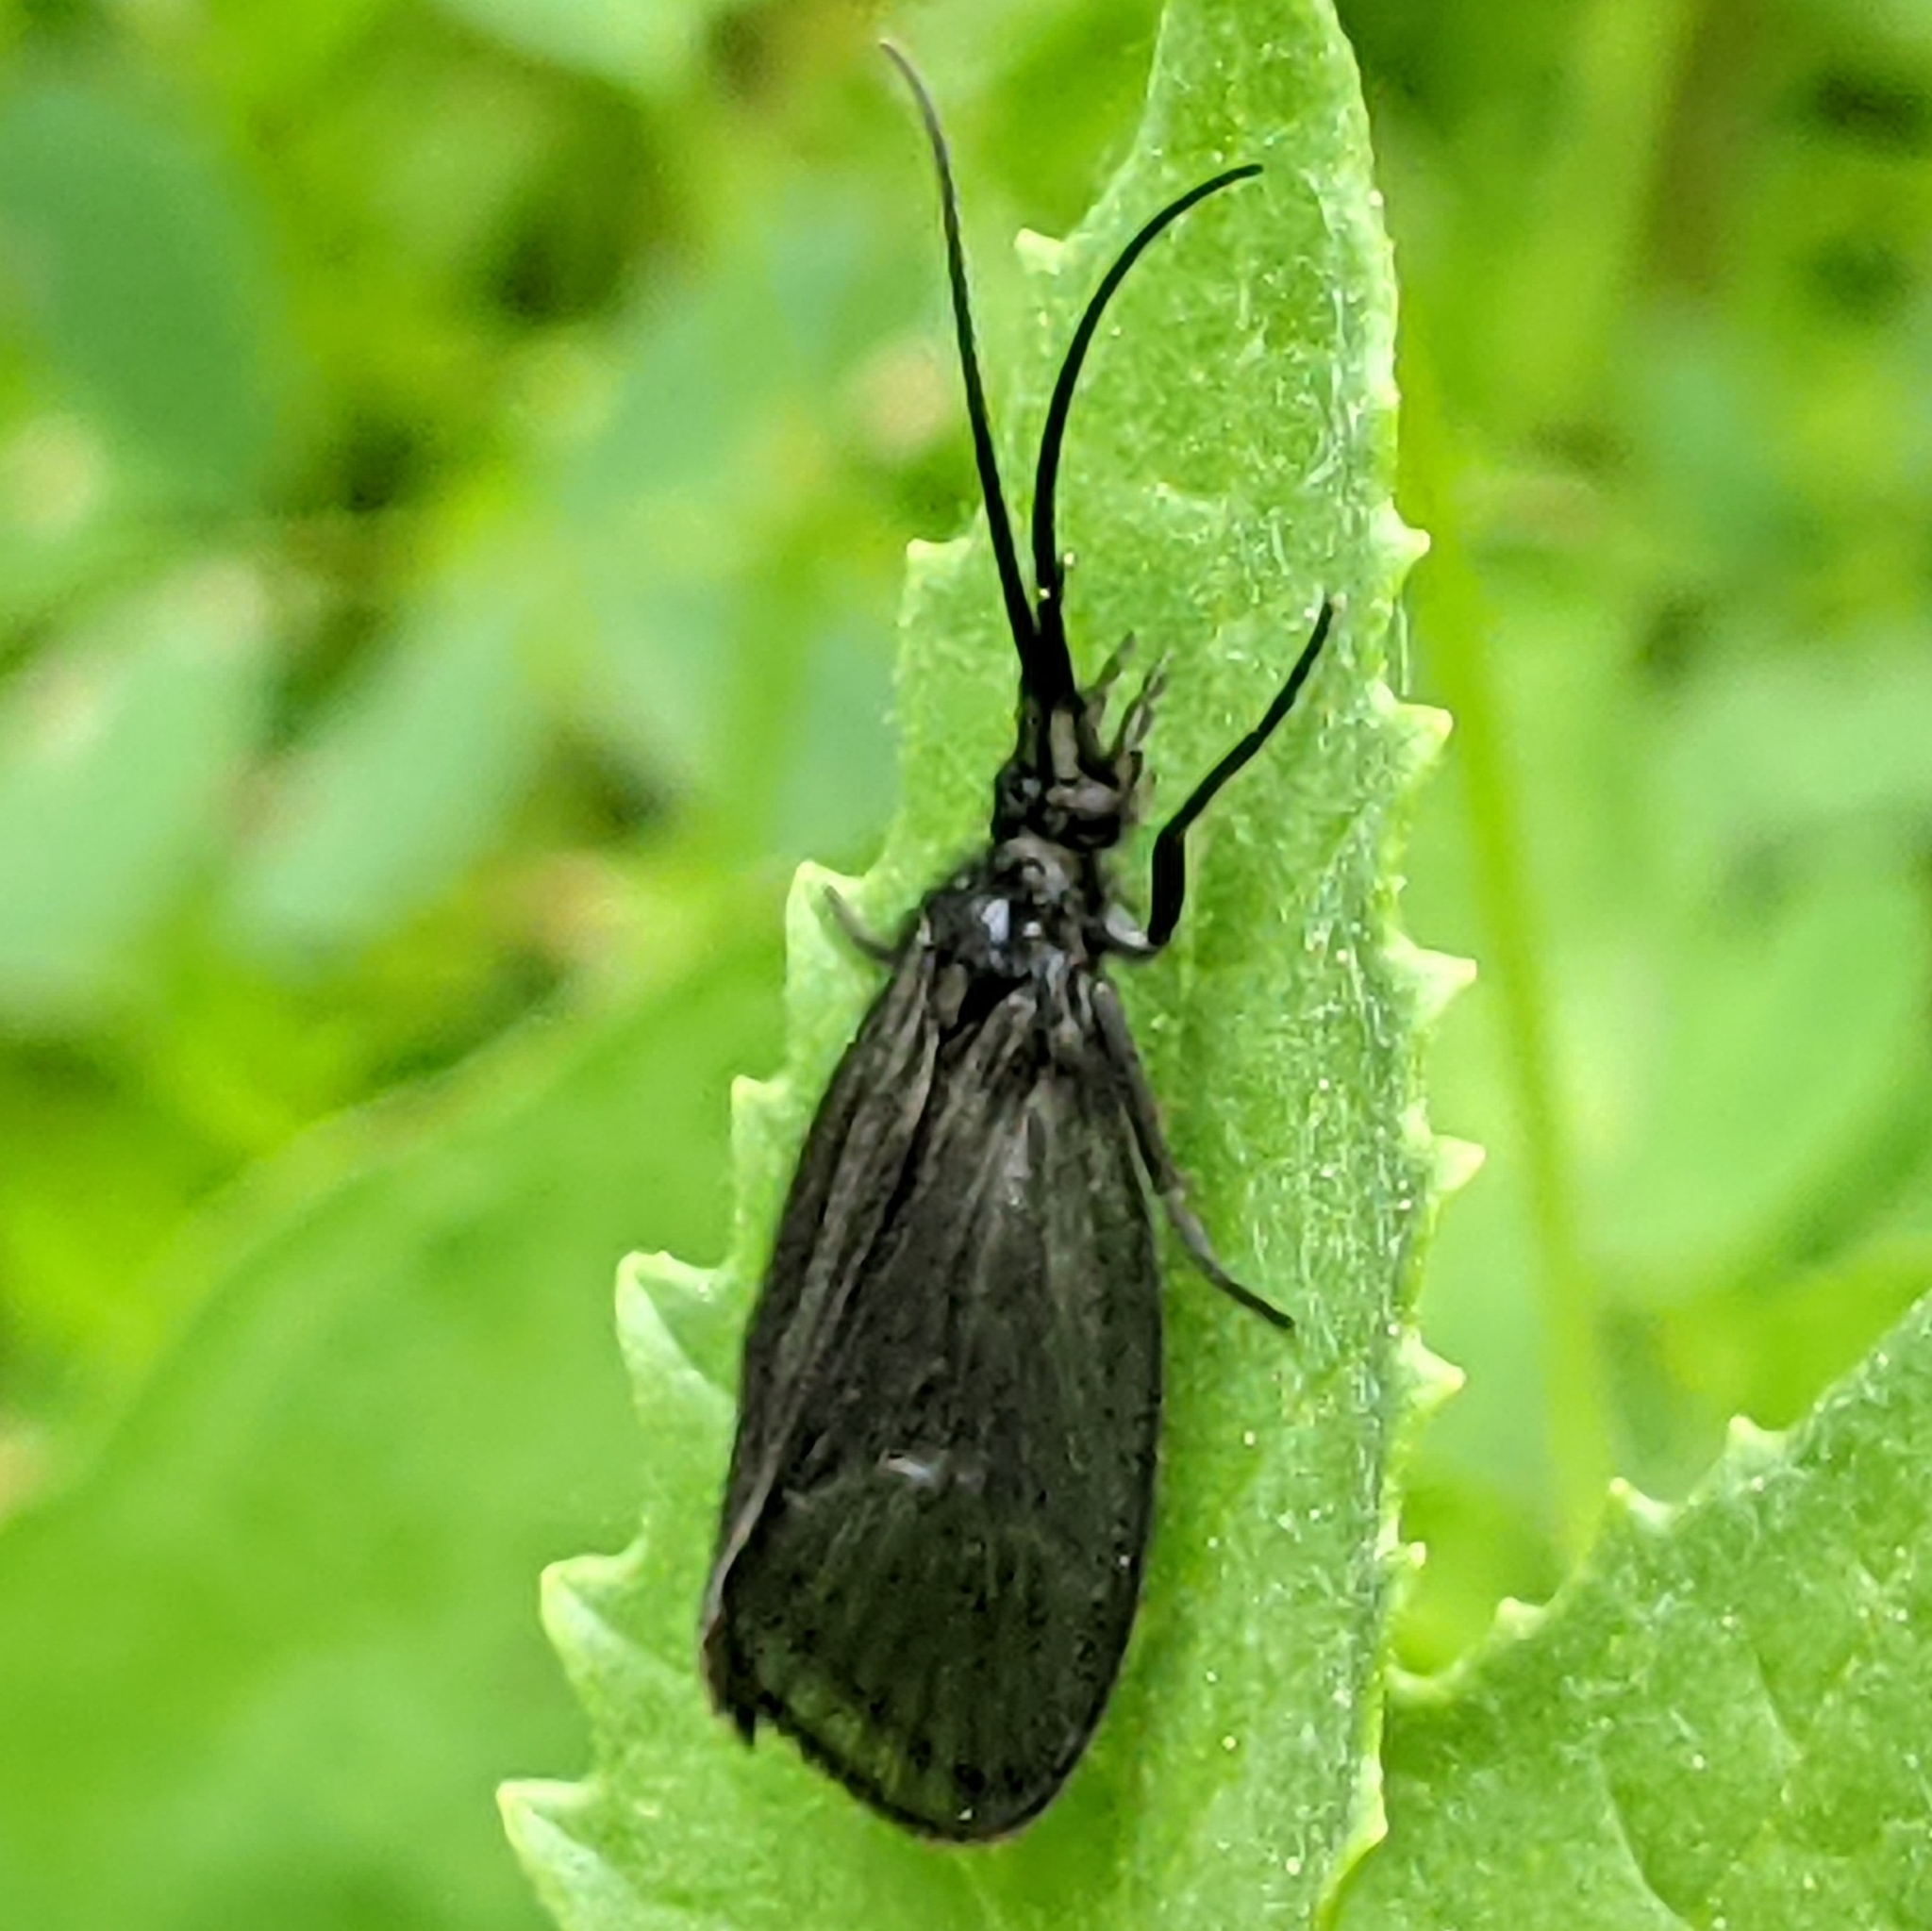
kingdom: Animalia
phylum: Arthropoda
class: Insecta
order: Trichoptera
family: Odontoceridae
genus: Namamyia
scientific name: Namamyia plutonis
